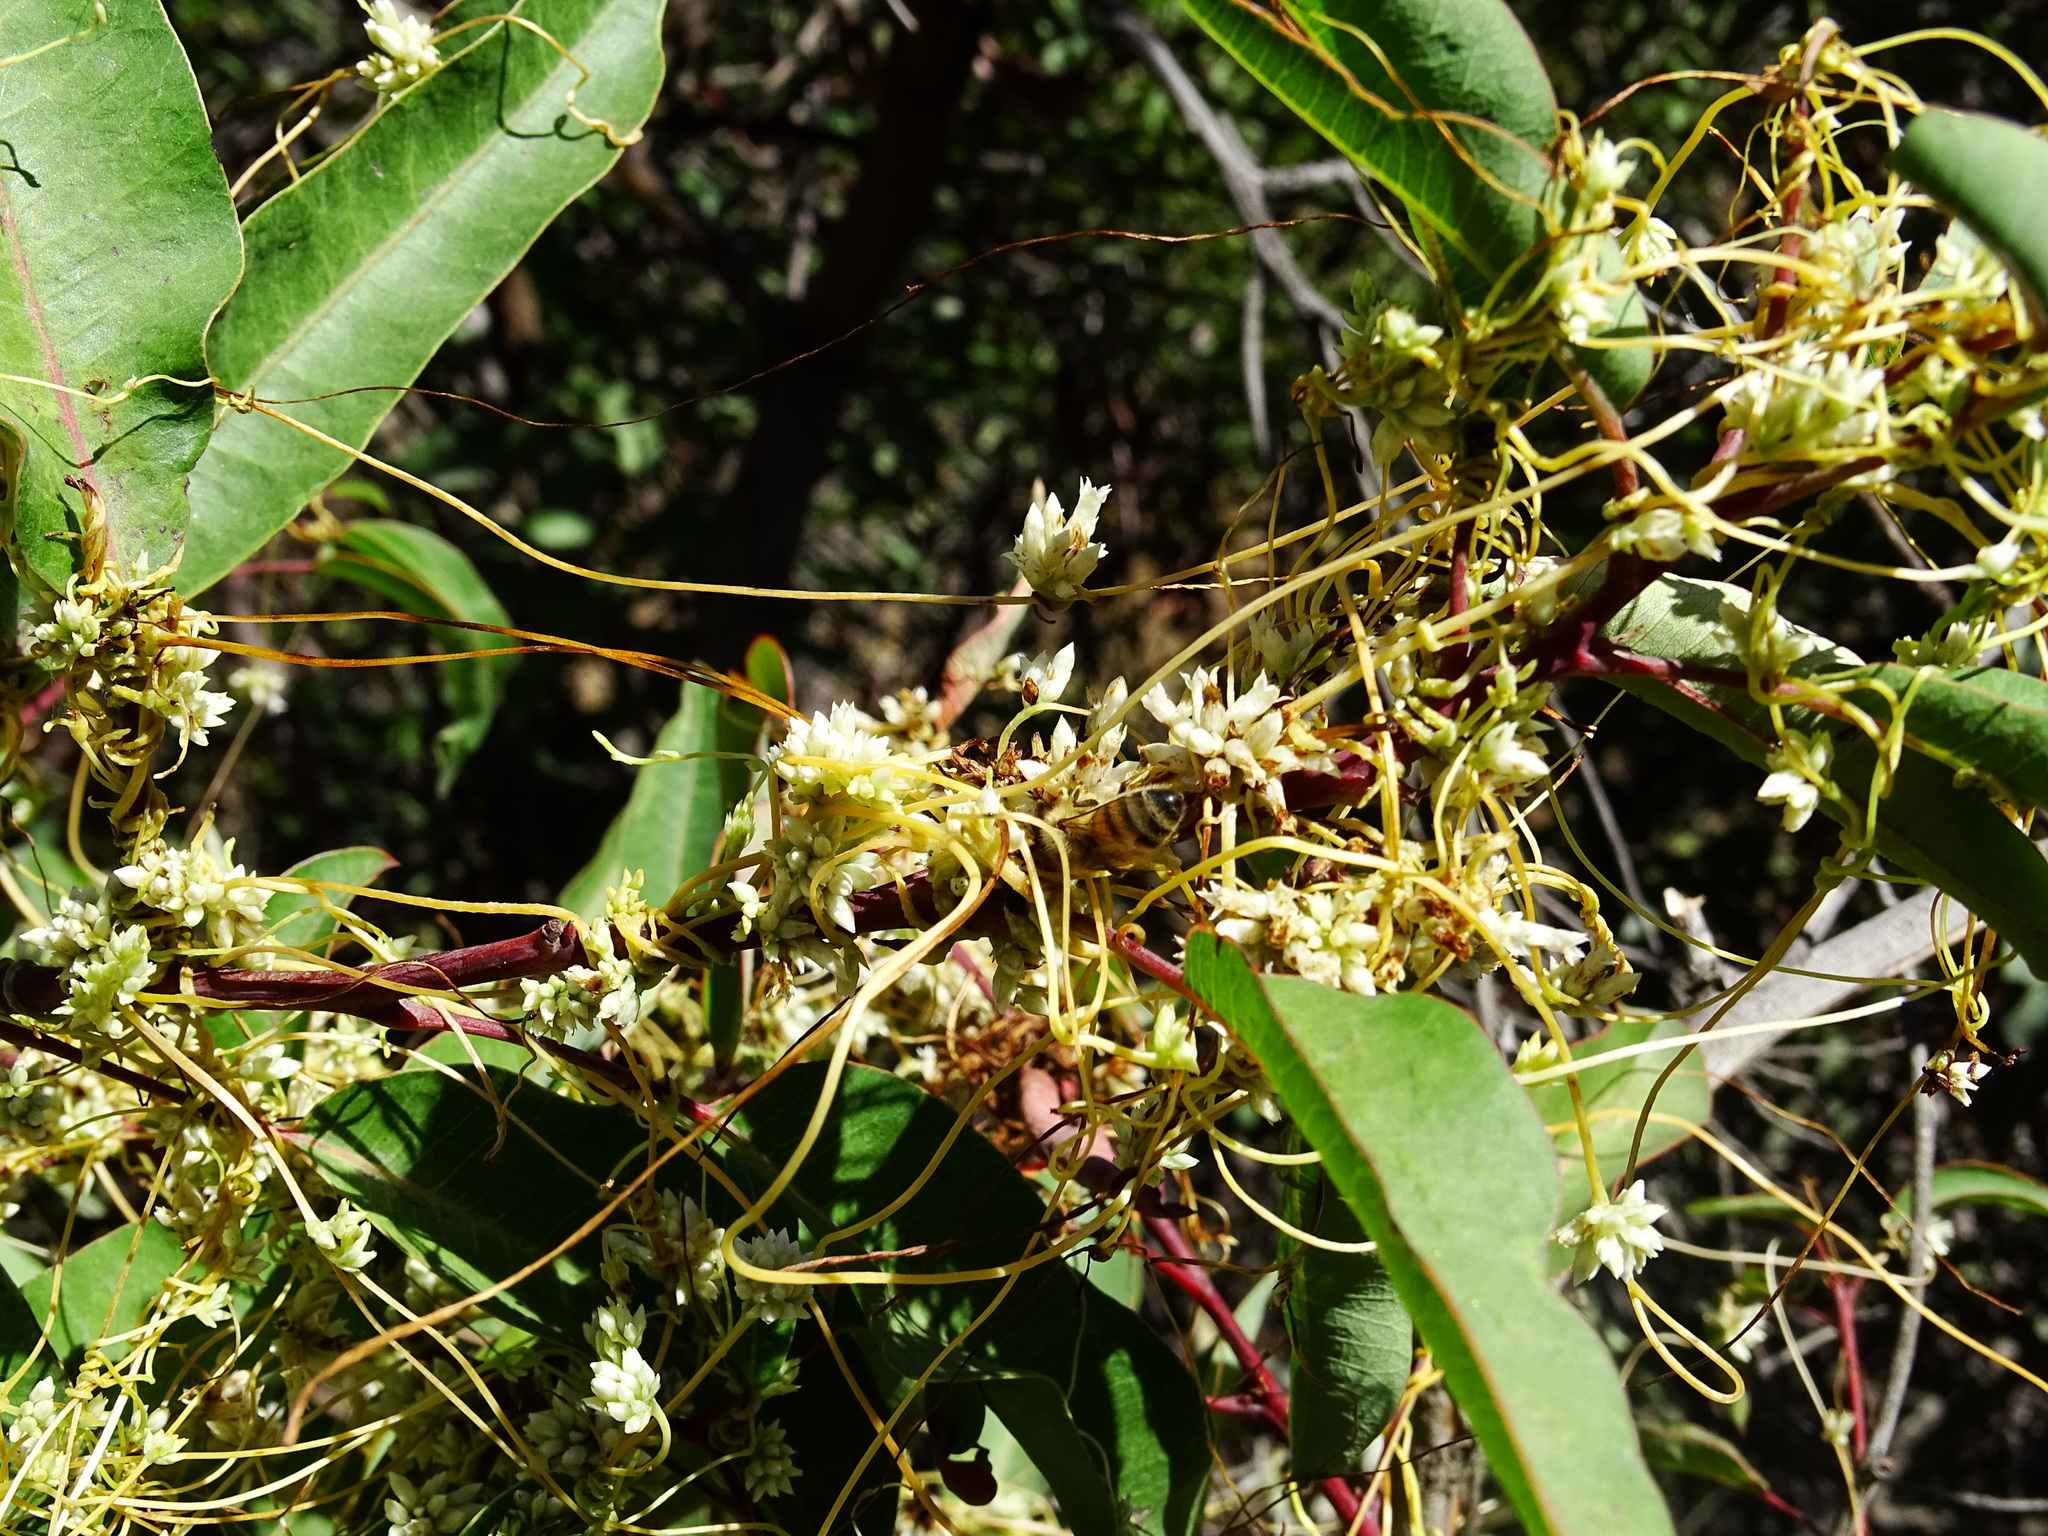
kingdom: Animalia
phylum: Arthropoda
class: Insecta
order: Hymenoptera
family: Apidae
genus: Apis
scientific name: Apis mellifera
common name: Honey bee
